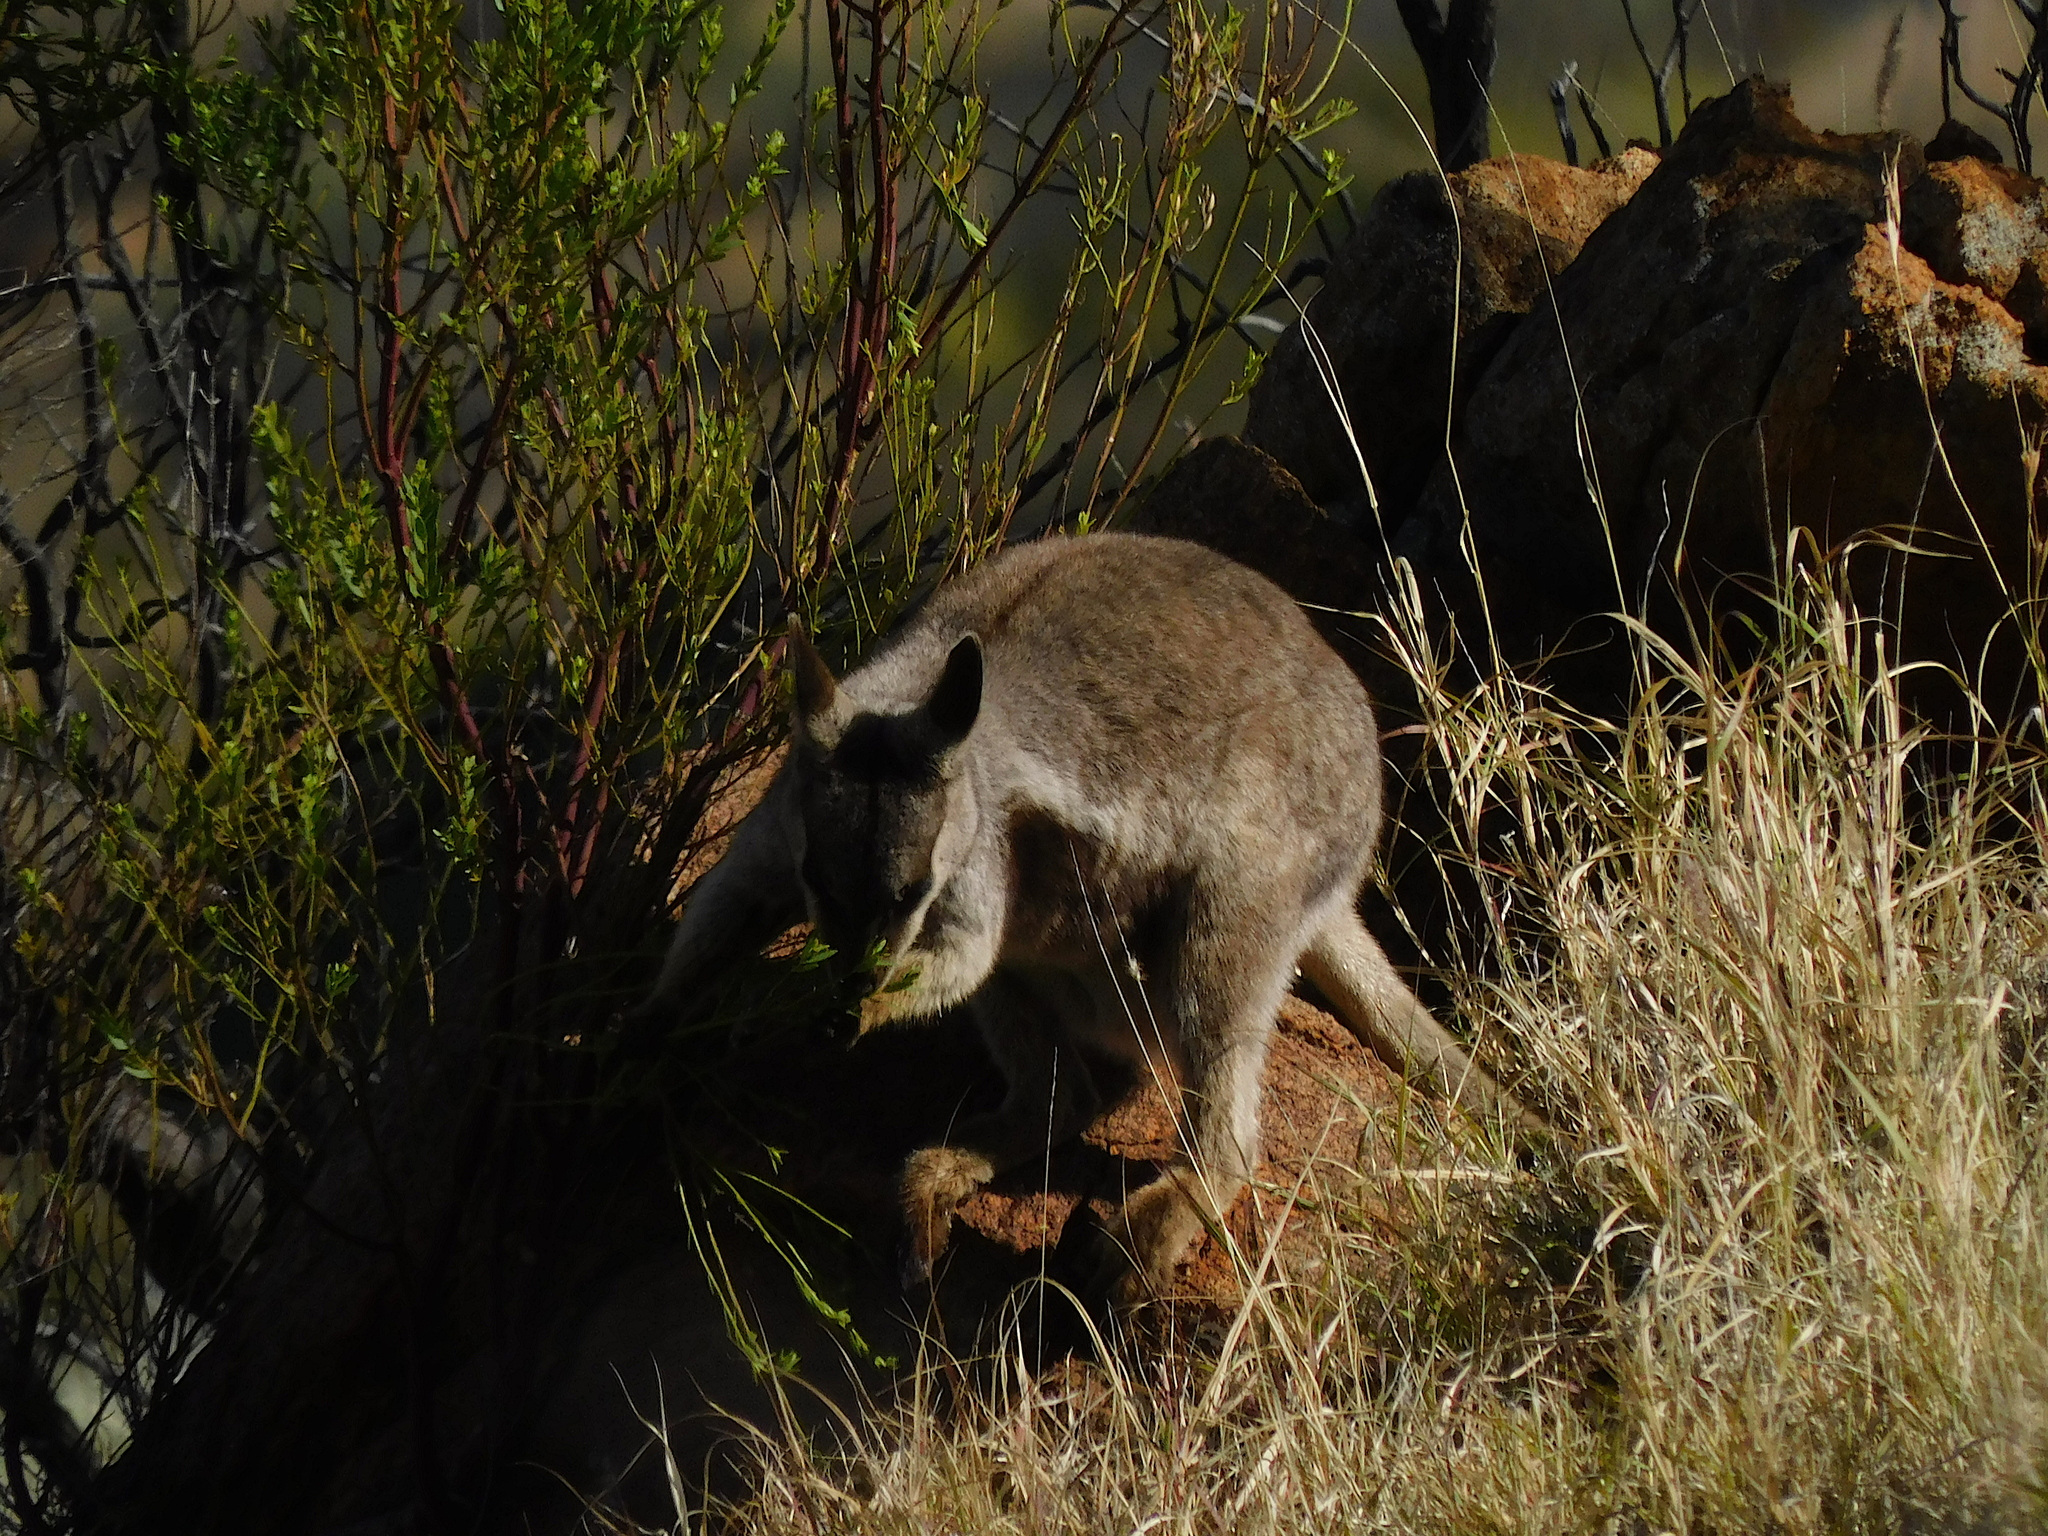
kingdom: Animalia
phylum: Chordata
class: Mammalia
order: Diprotodontia
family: Macropodidae
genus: Petrogale
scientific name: Petrogale lateralis
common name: Black-flanked rock-wallaby
